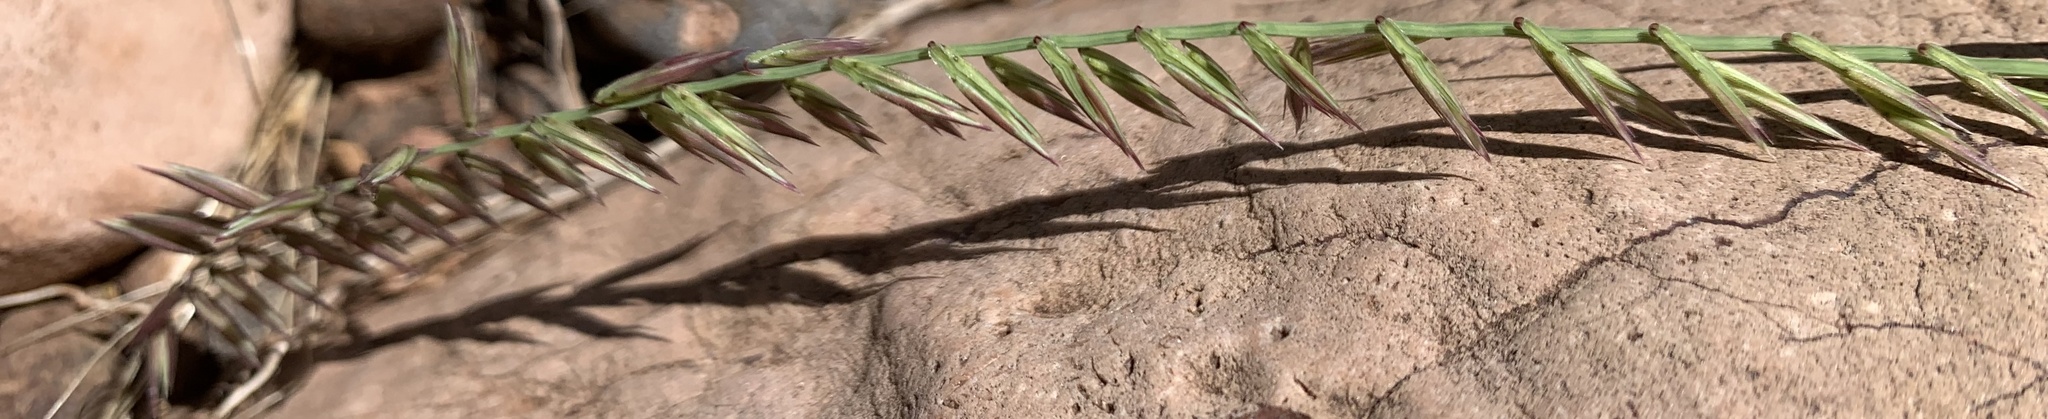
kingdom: Plantae
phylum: Tracheophyta
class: Liliopsida
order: Poales
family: Poaceae
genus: Bouteloua
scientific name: Bouteloua curtipendula
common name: Side-oats grama
